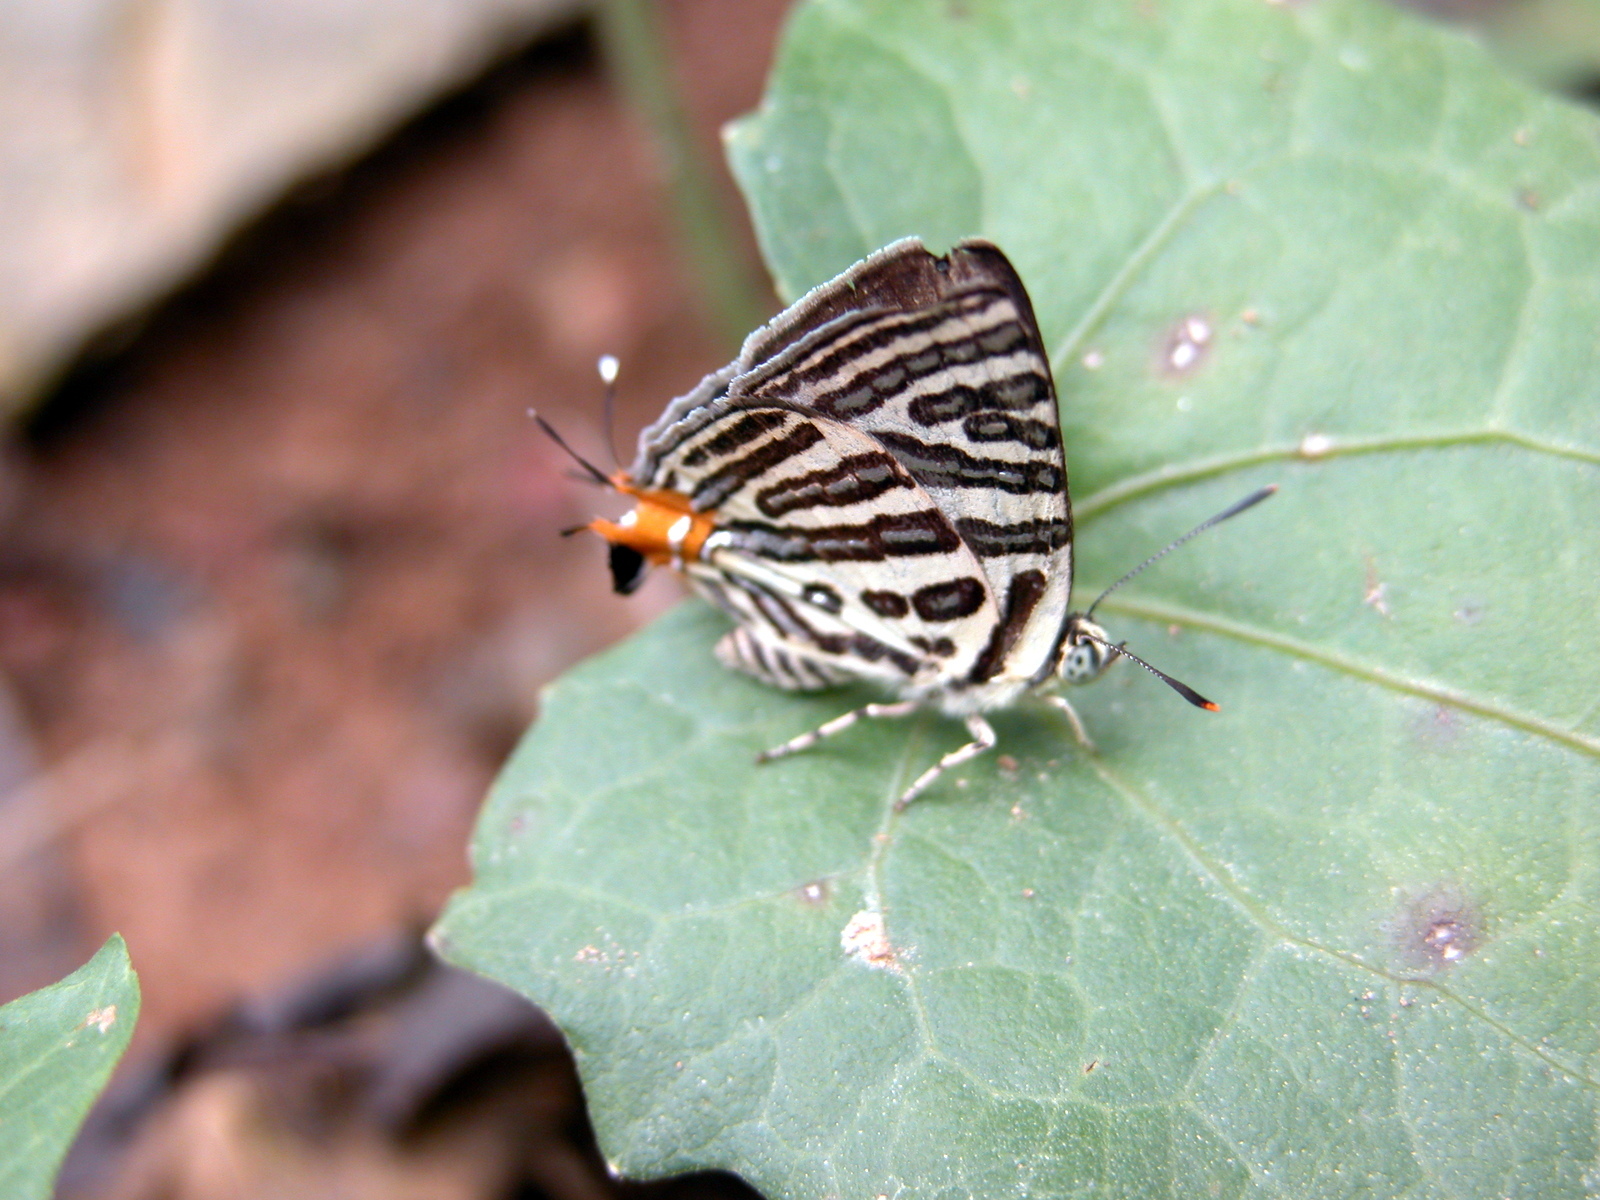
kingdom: Animalia
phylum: Arthropoda
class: Insecta
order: Lepidoptera
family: Lycaenidae
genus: Cigaritis
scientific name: Cigaritis syama
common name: Club silverline
